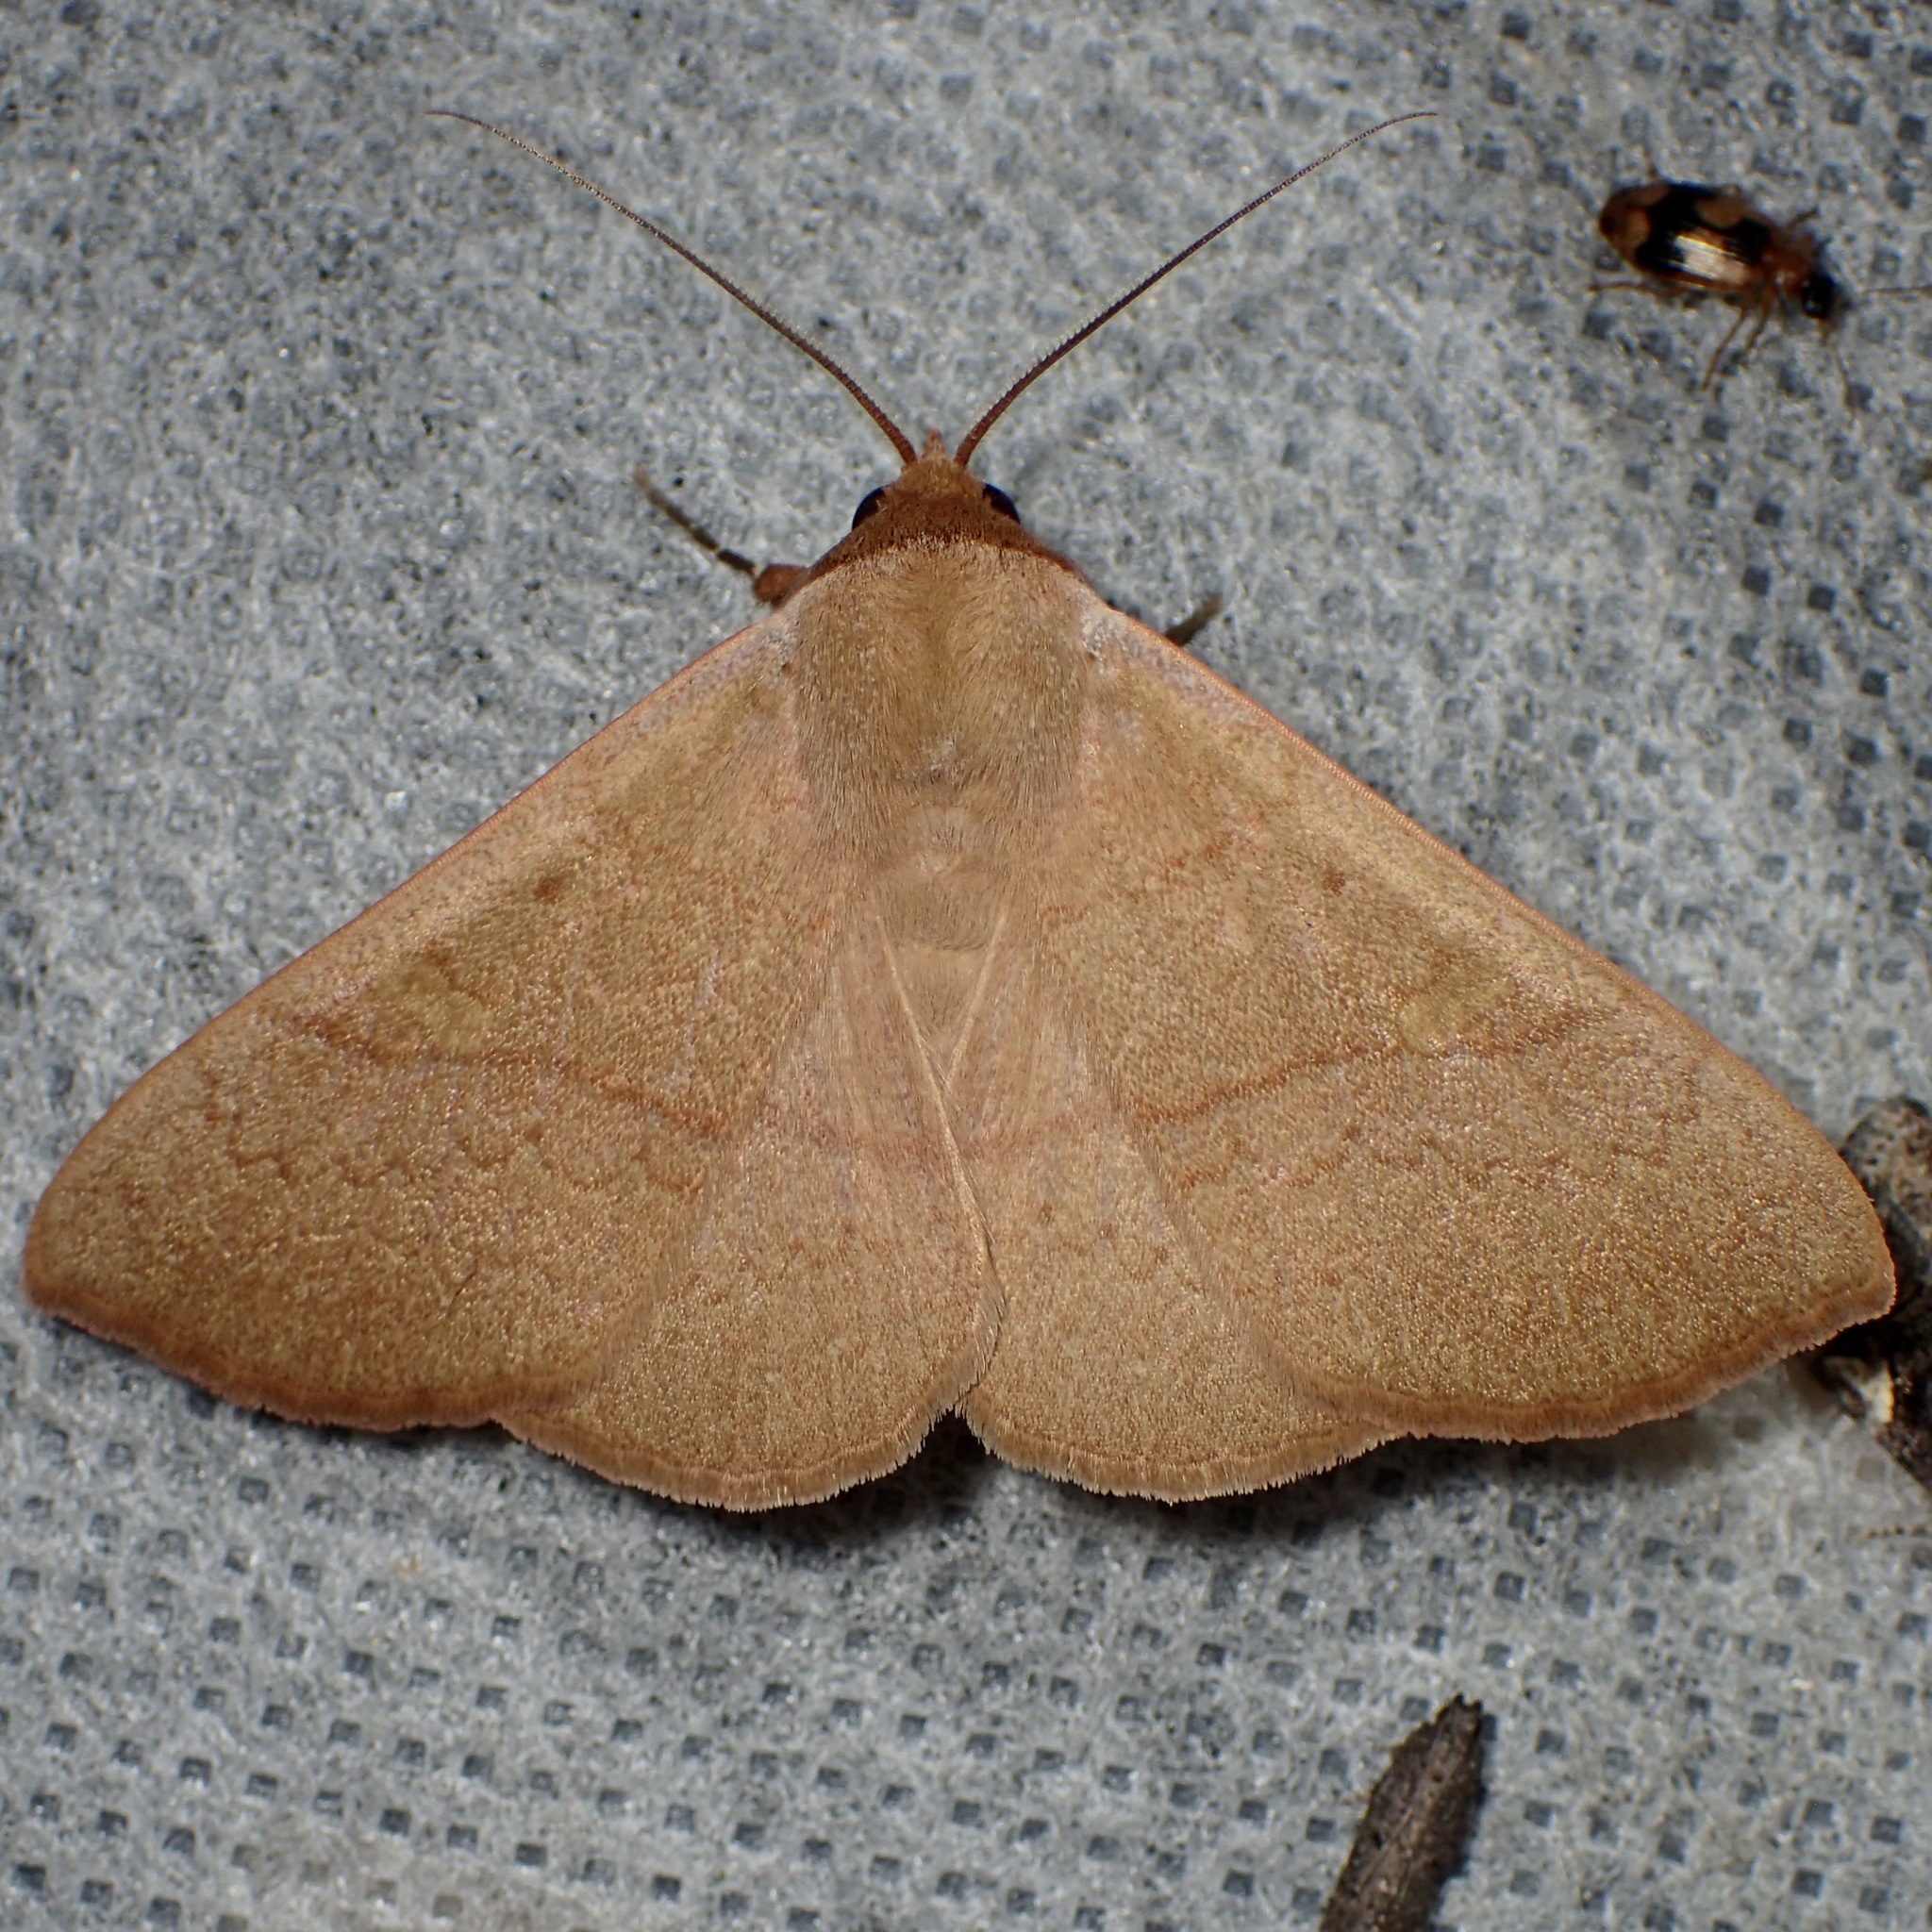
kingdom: Animalia
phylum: Arthropoda
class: Insecta
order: Lepidoptera
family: Erebidae
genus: Panopoda
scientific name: Panopoda rigida
